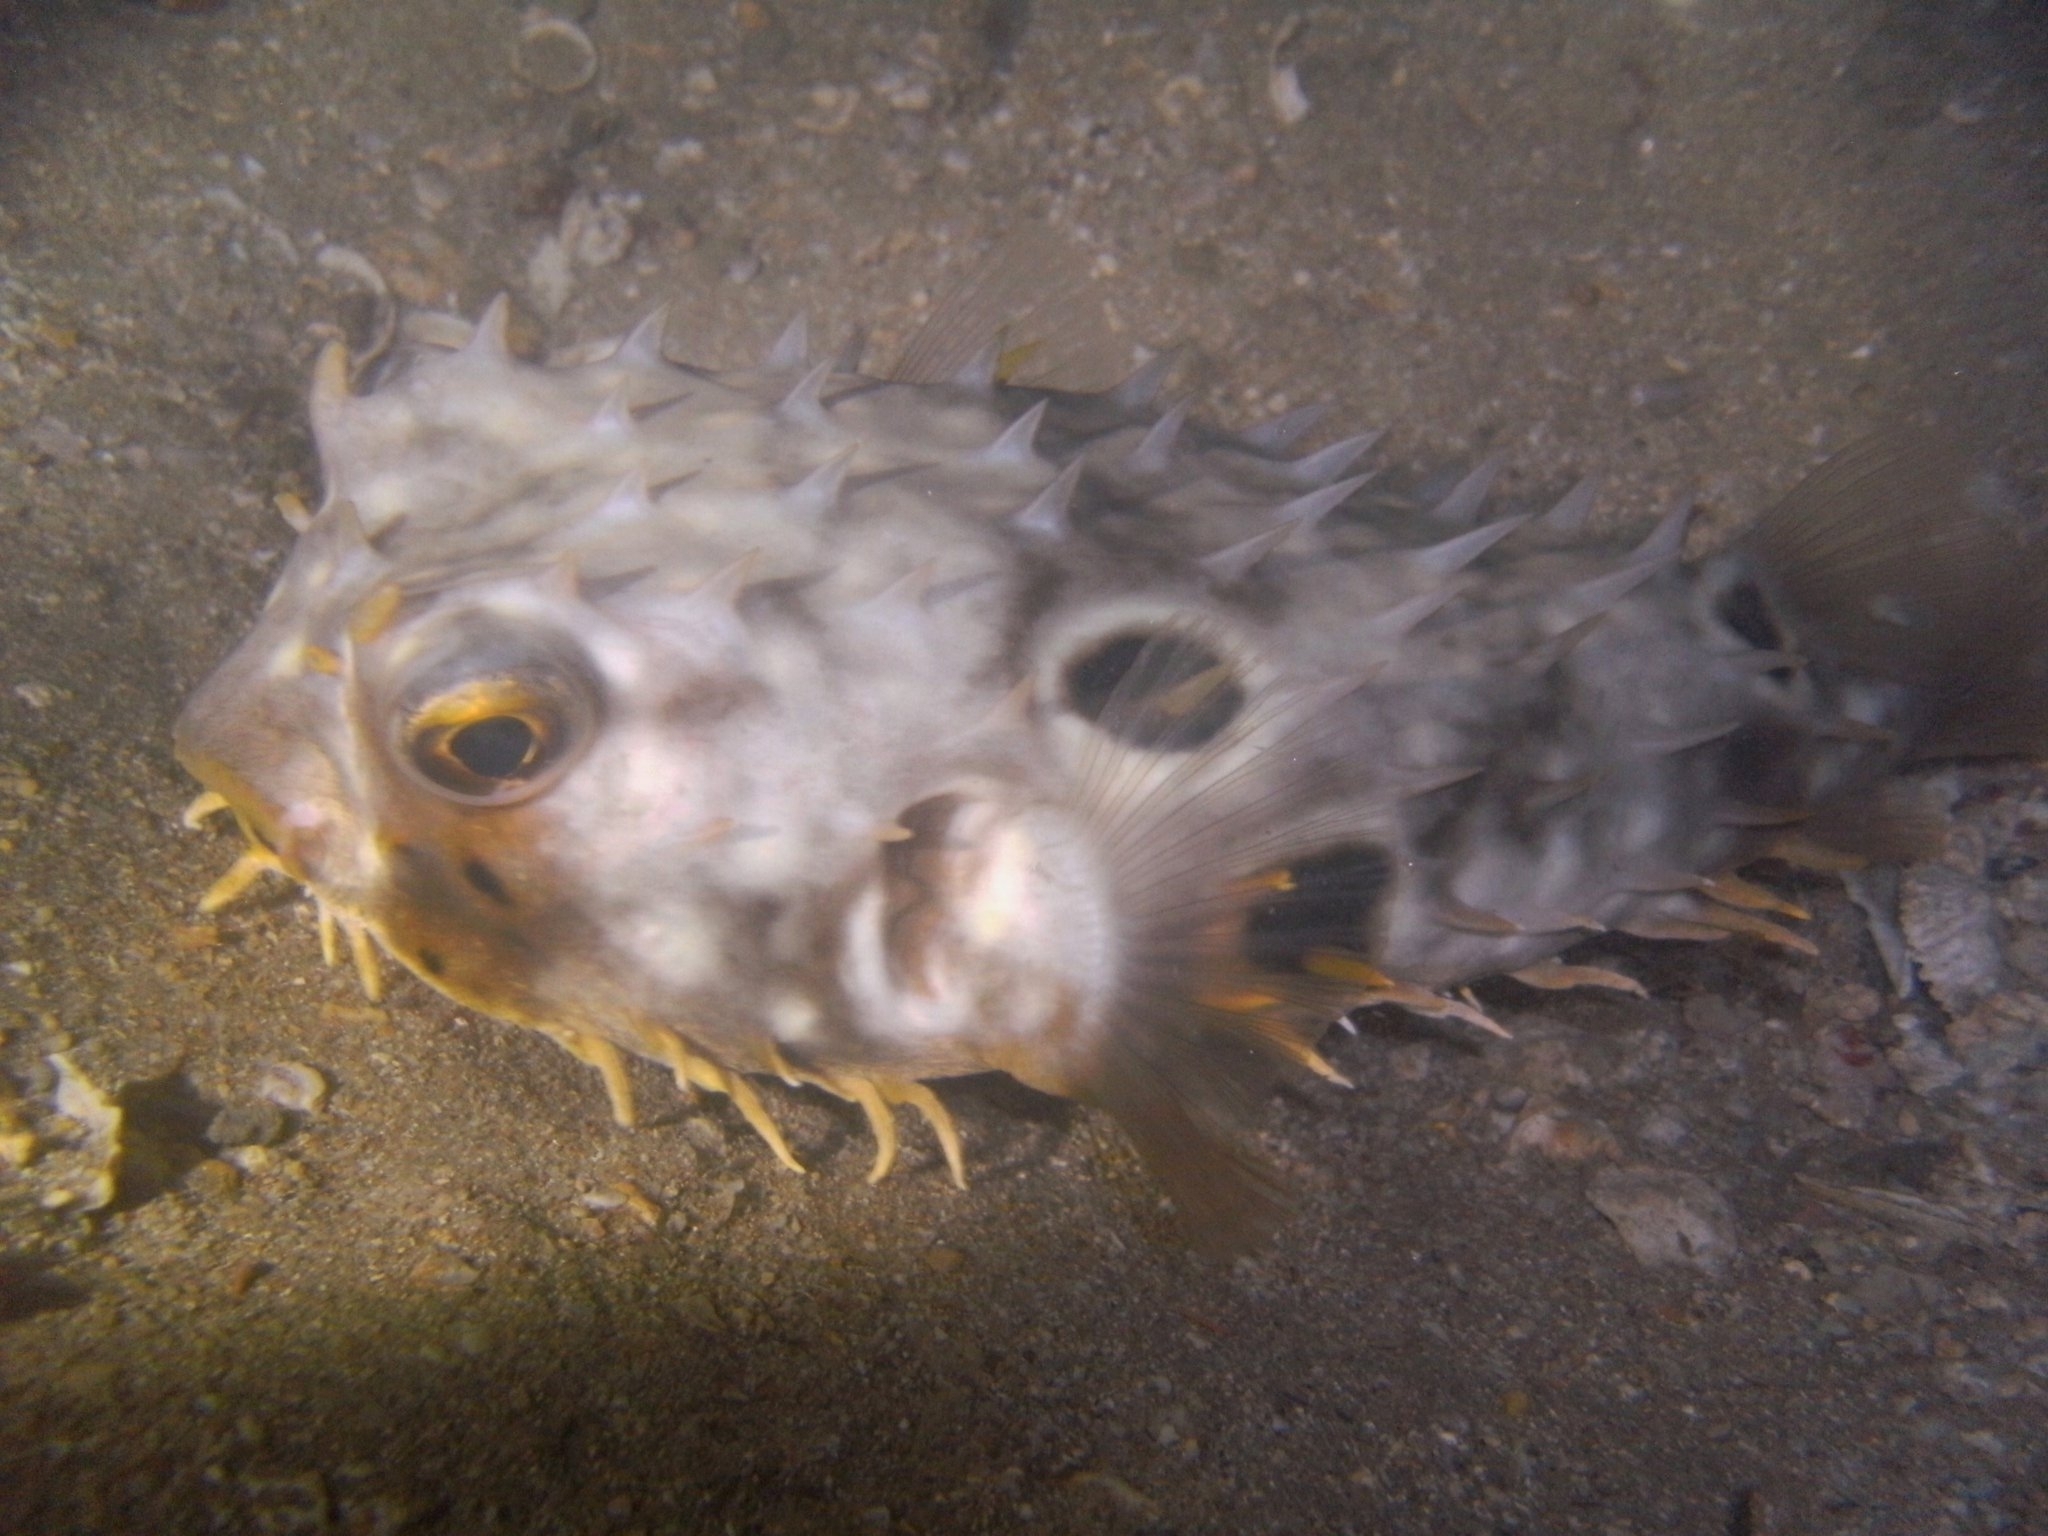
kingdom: Animalia
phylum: Chordata
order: Tetraodontiformes
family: Diodontidae
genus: Chilomycterus
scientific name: Chilomycterus spinosus
